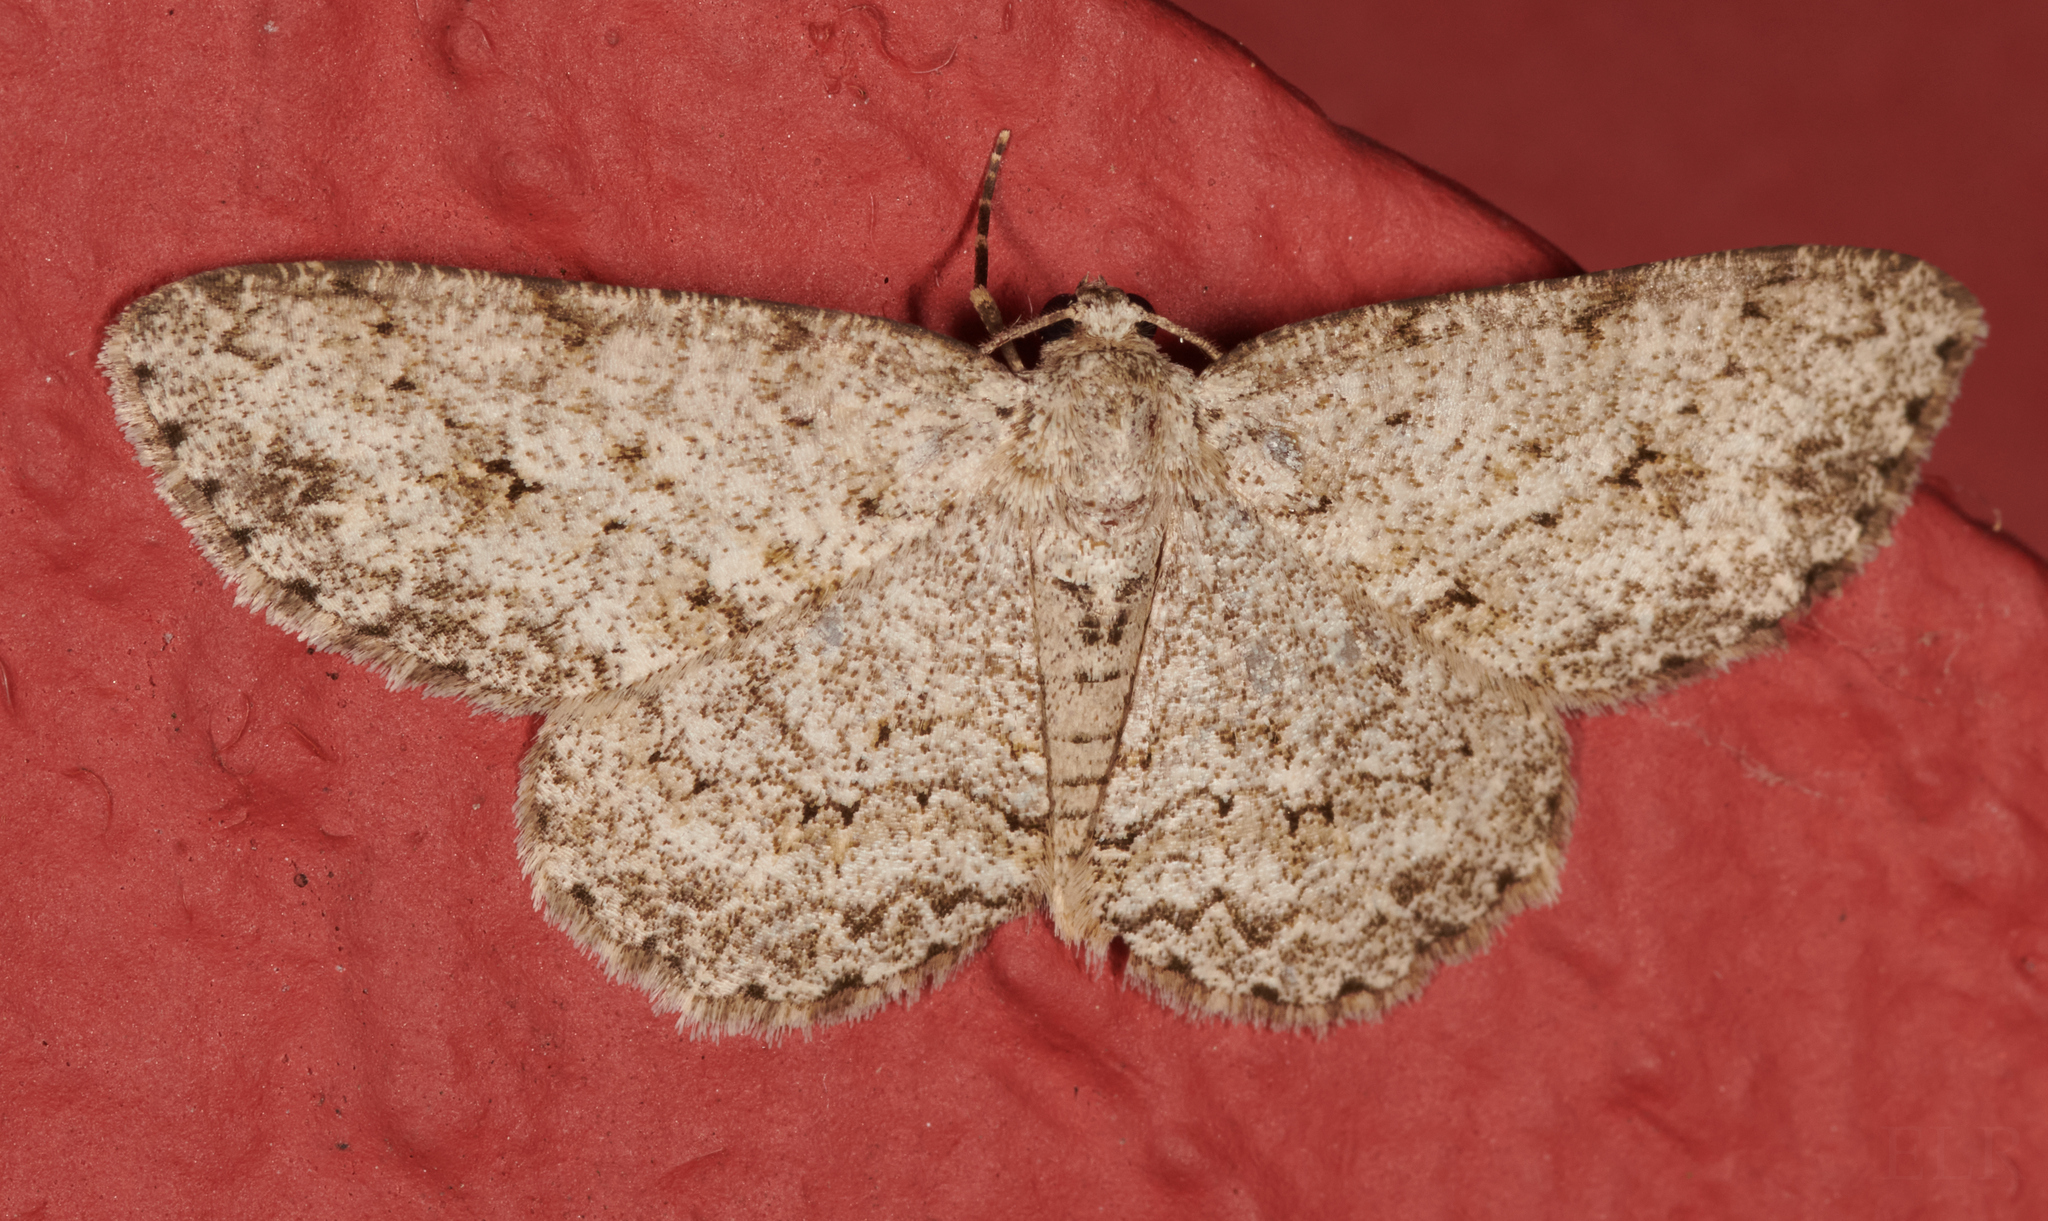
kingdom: Animalia
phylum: Arthropoda
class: Insecta
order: Lepidoptera
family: Geometridae
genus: Ectropis
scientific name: Ectropis crepuscularia
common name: Engrailed
